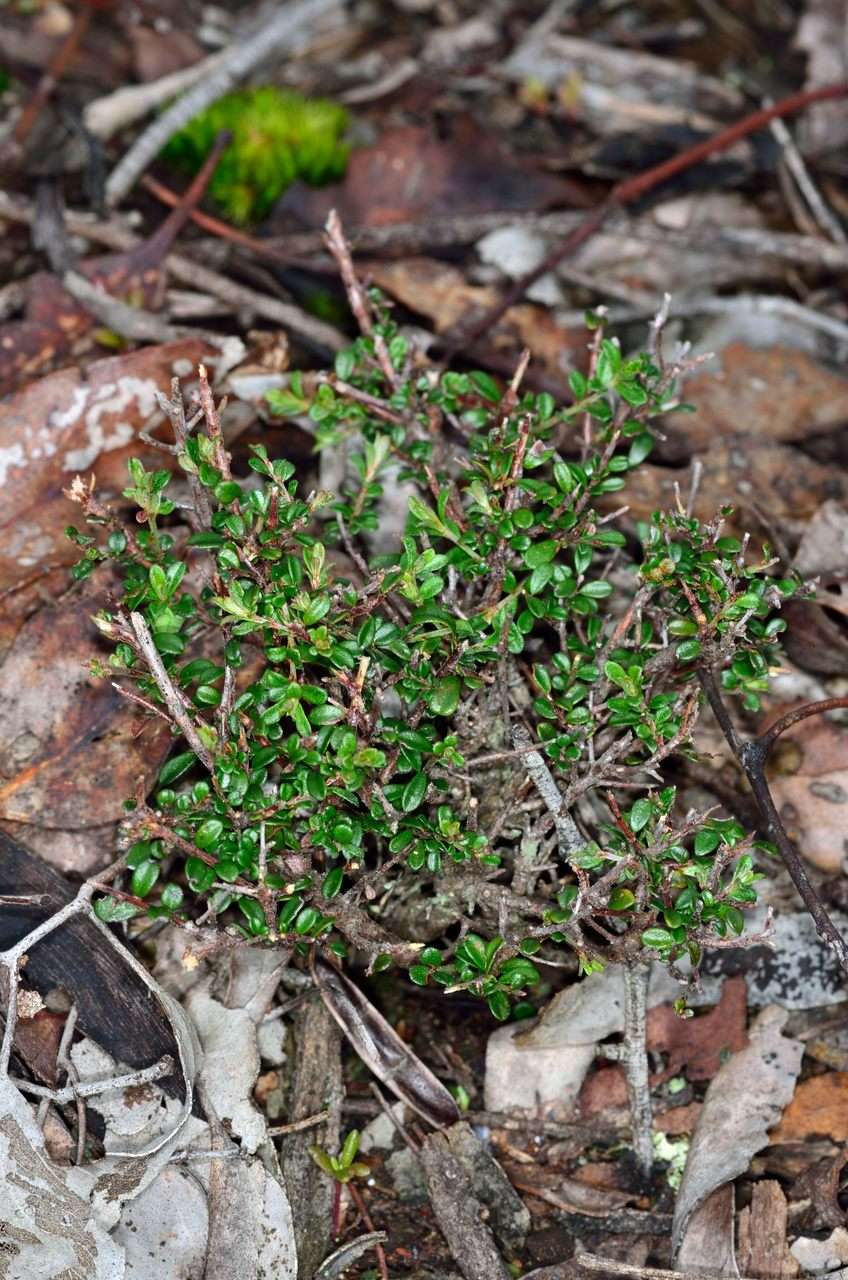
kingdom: Plantae
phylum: Tracheophyta
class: Magnoliopsida
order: Fabales
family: Fabaceae
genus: Pultenaea
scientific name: Pultenaea gunnii
